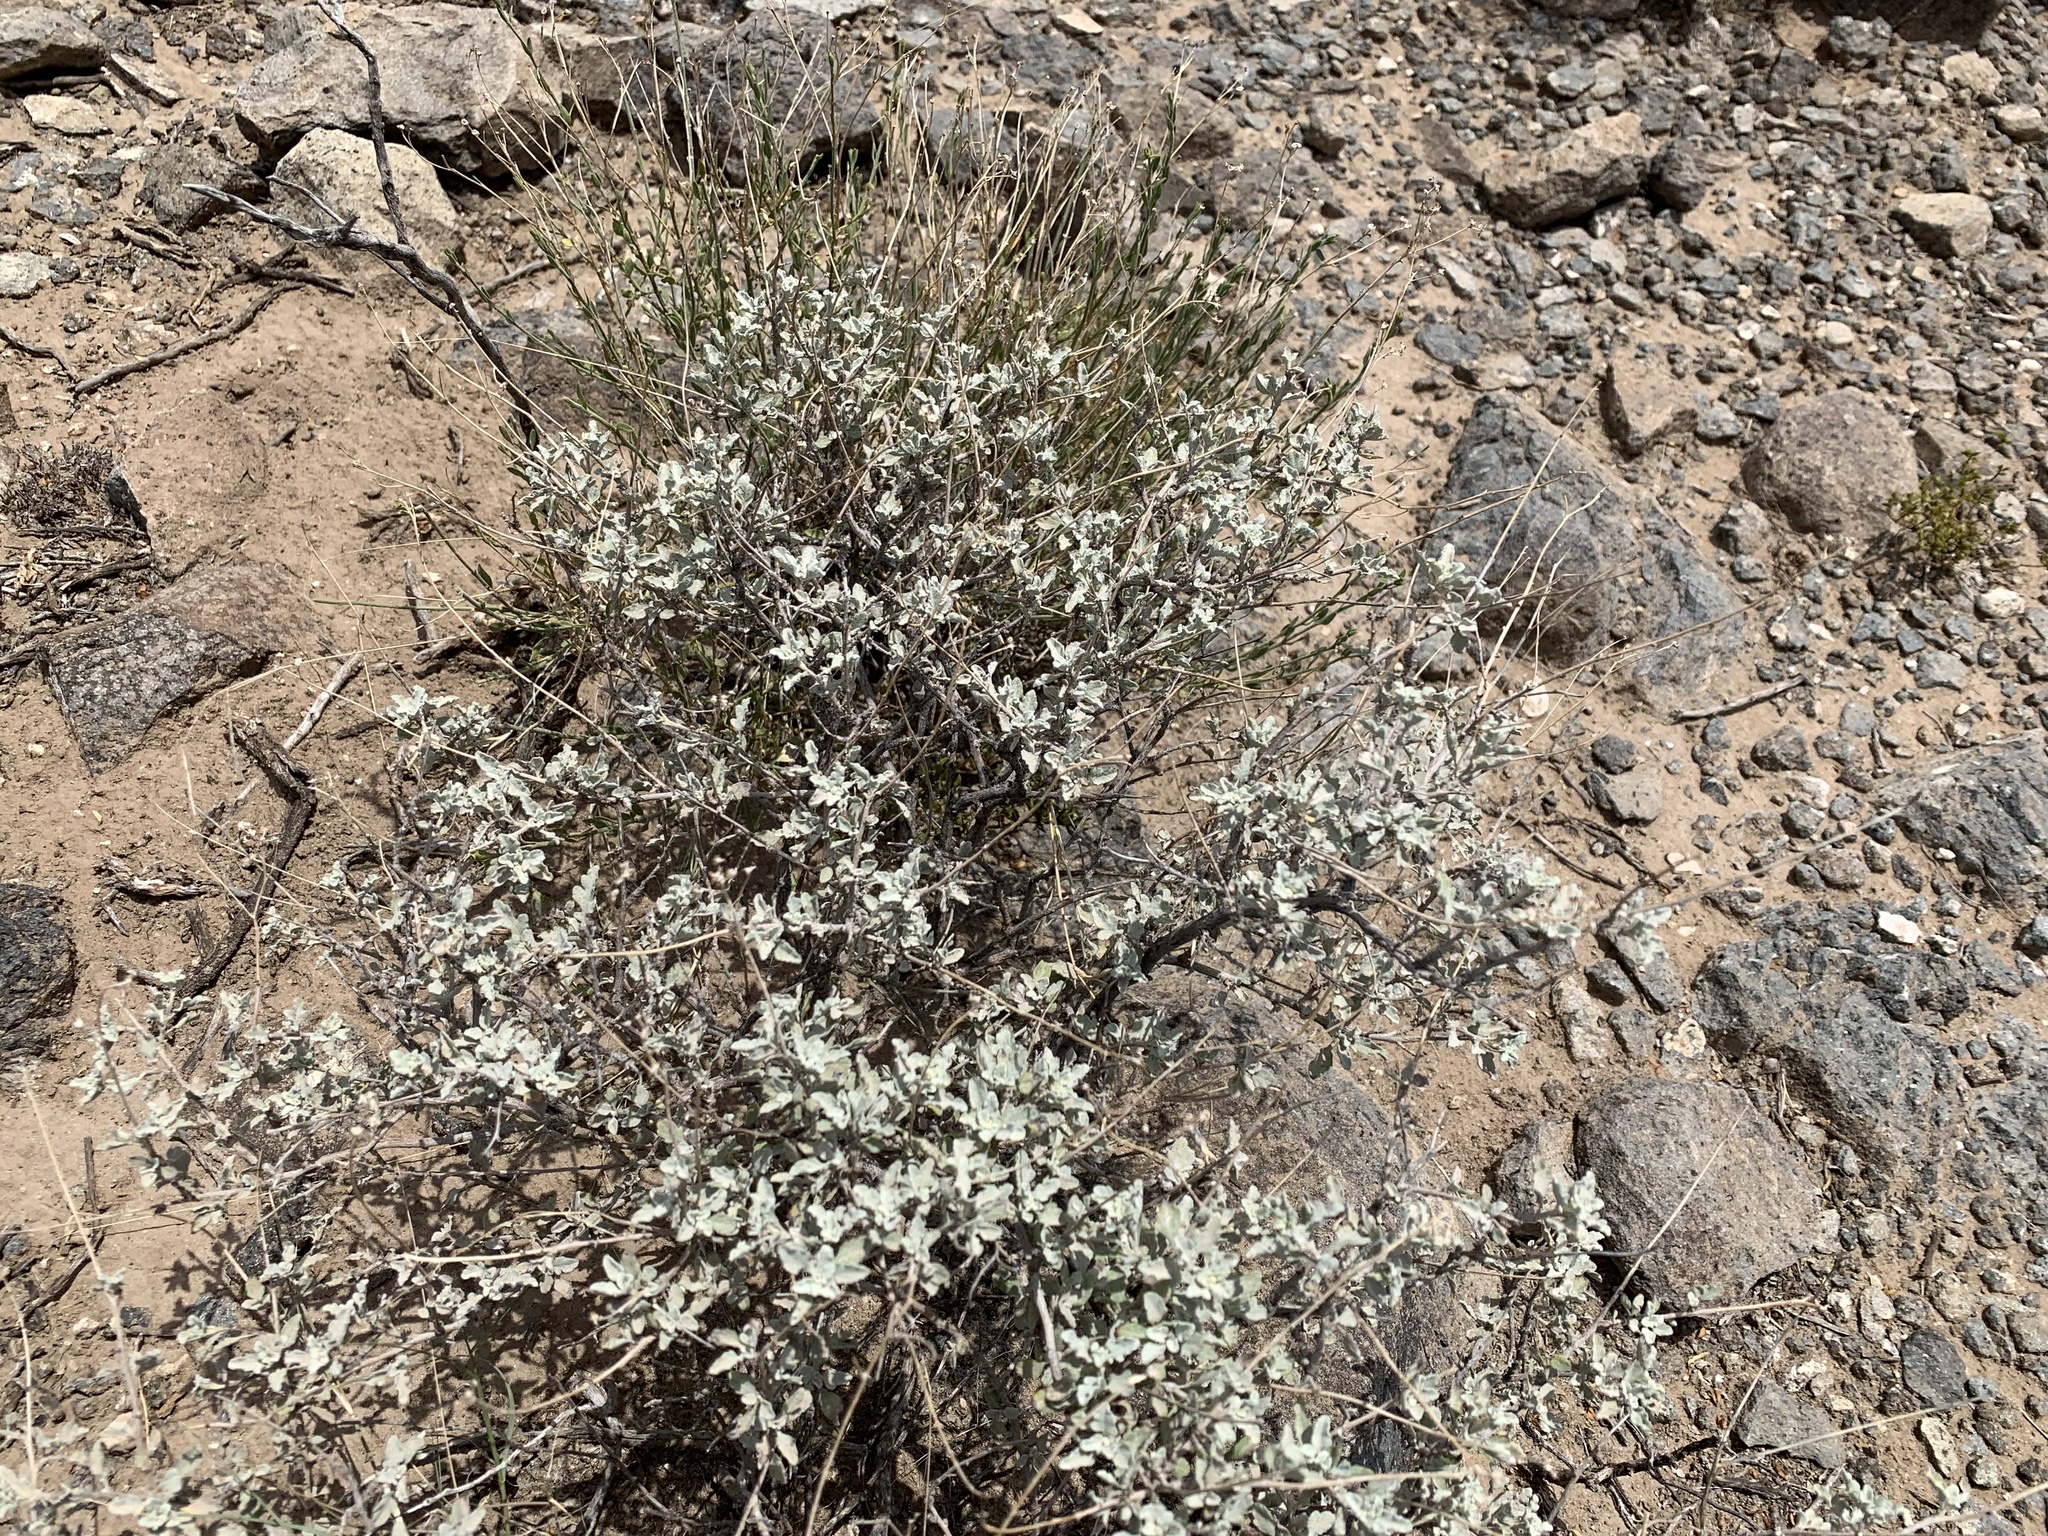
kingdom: Plantae
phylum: Tracheophyta
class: Magnoliopsida
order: Asterales
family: Asteraceae
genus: Parthenium
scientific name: Parthenium incanum
